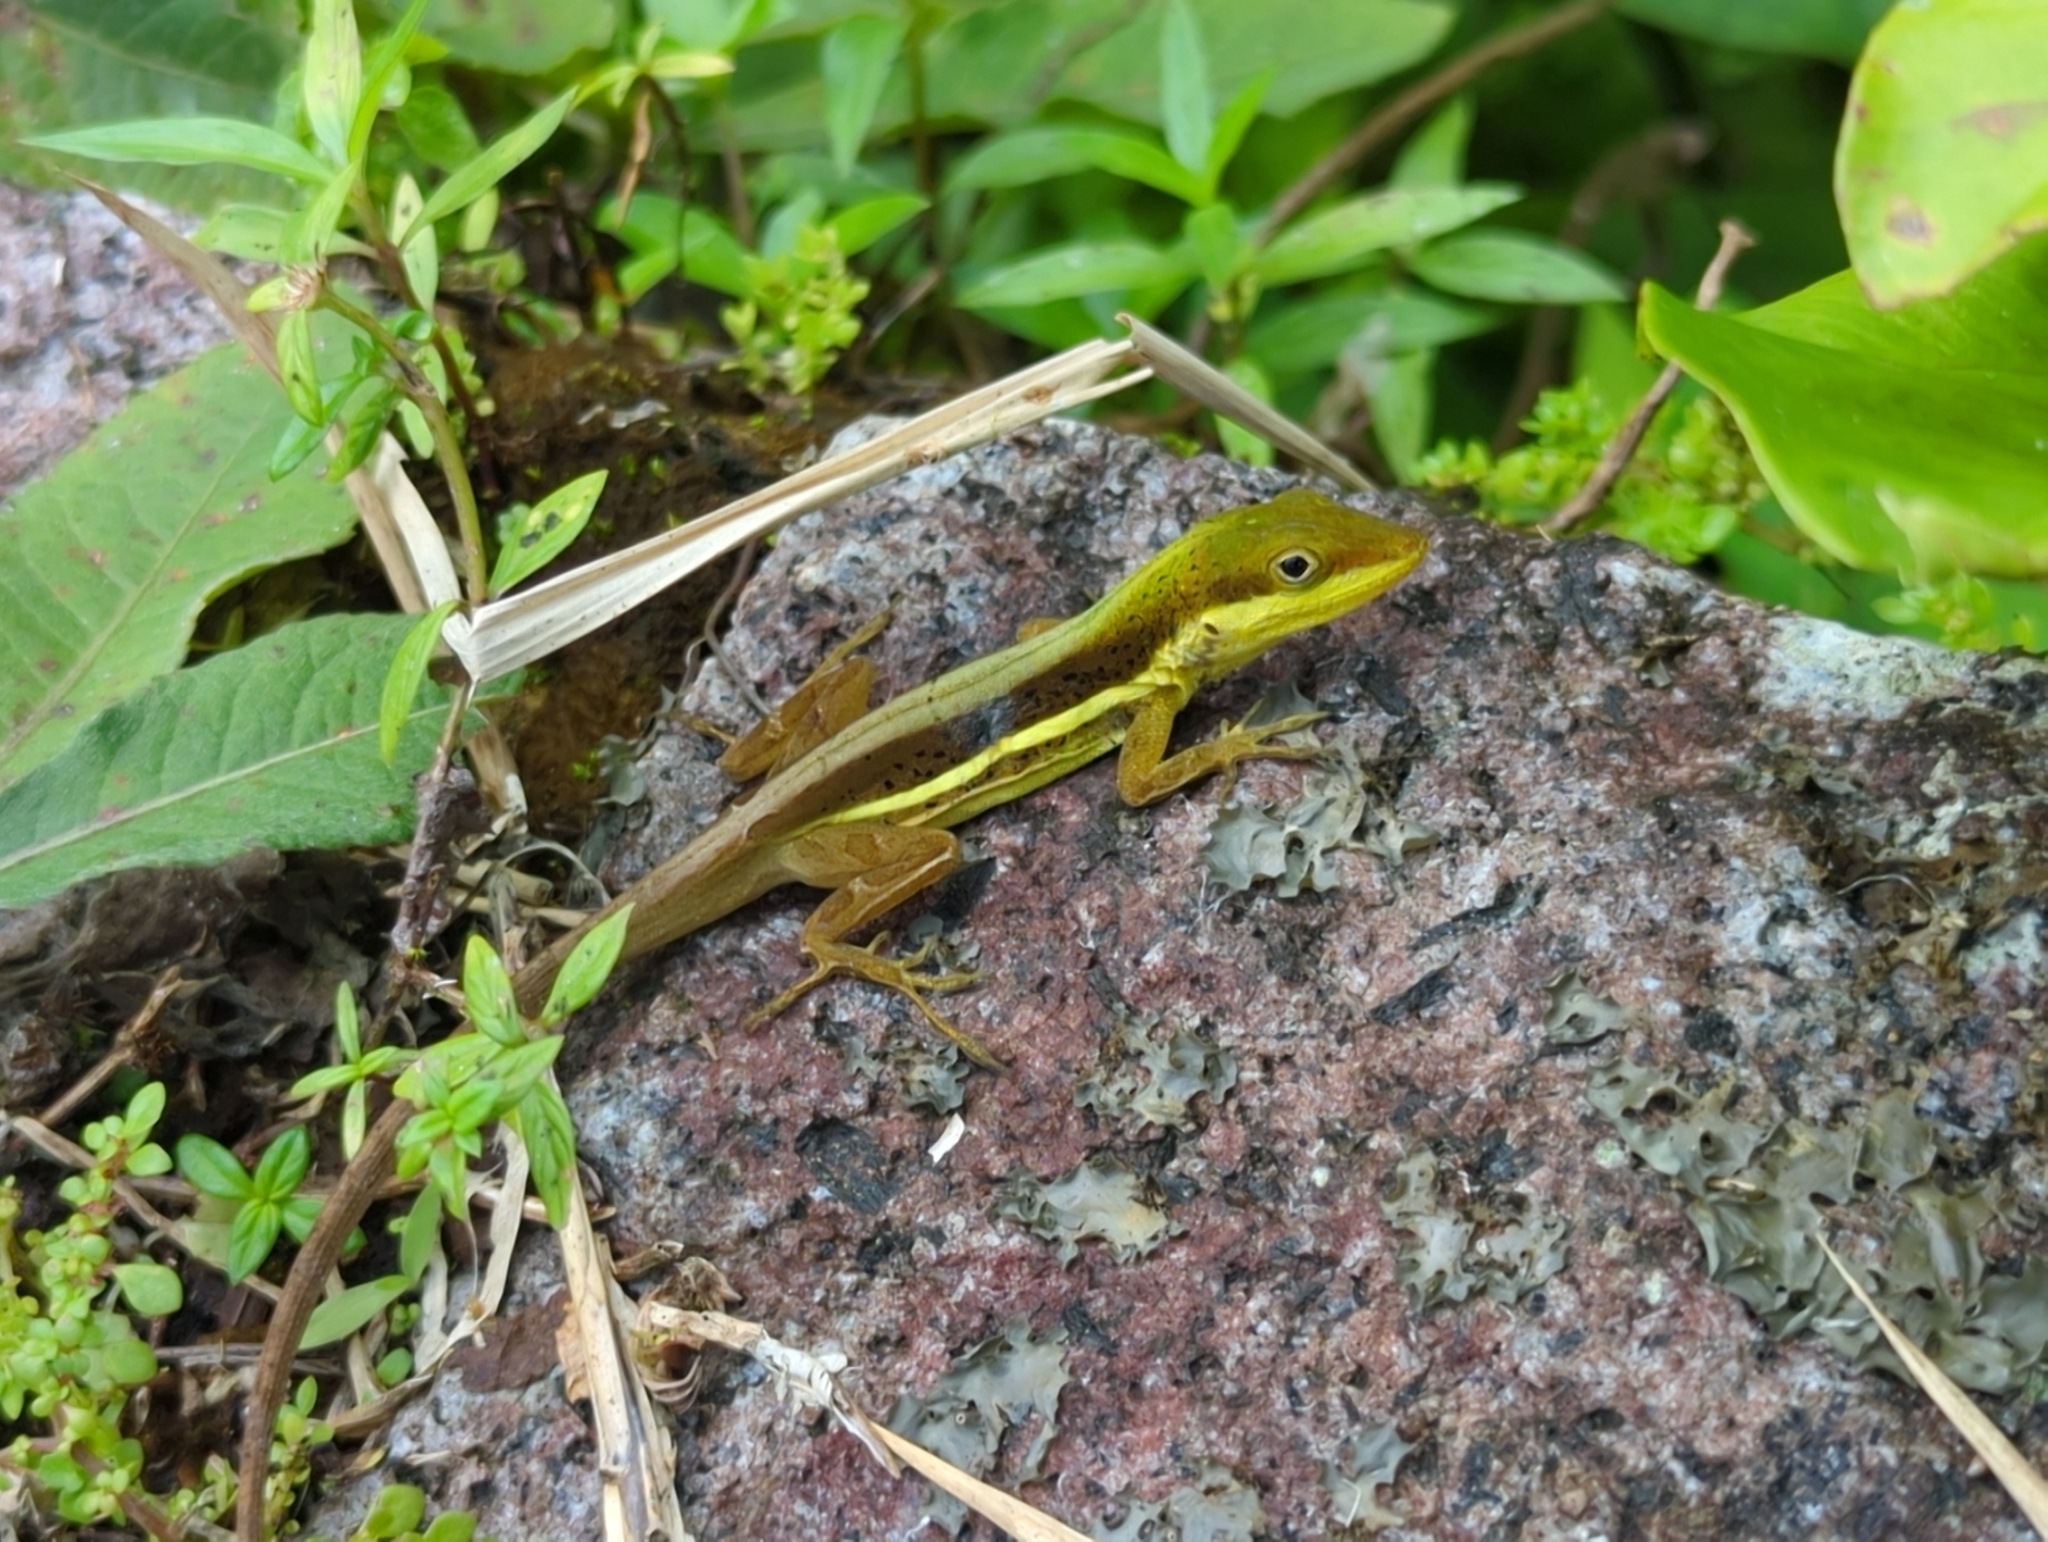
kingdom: Animalia
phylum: Chordata
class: Squamata
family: Dactyloidae
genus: Anolis
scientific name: Anolis krugi
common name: Krug's anole
